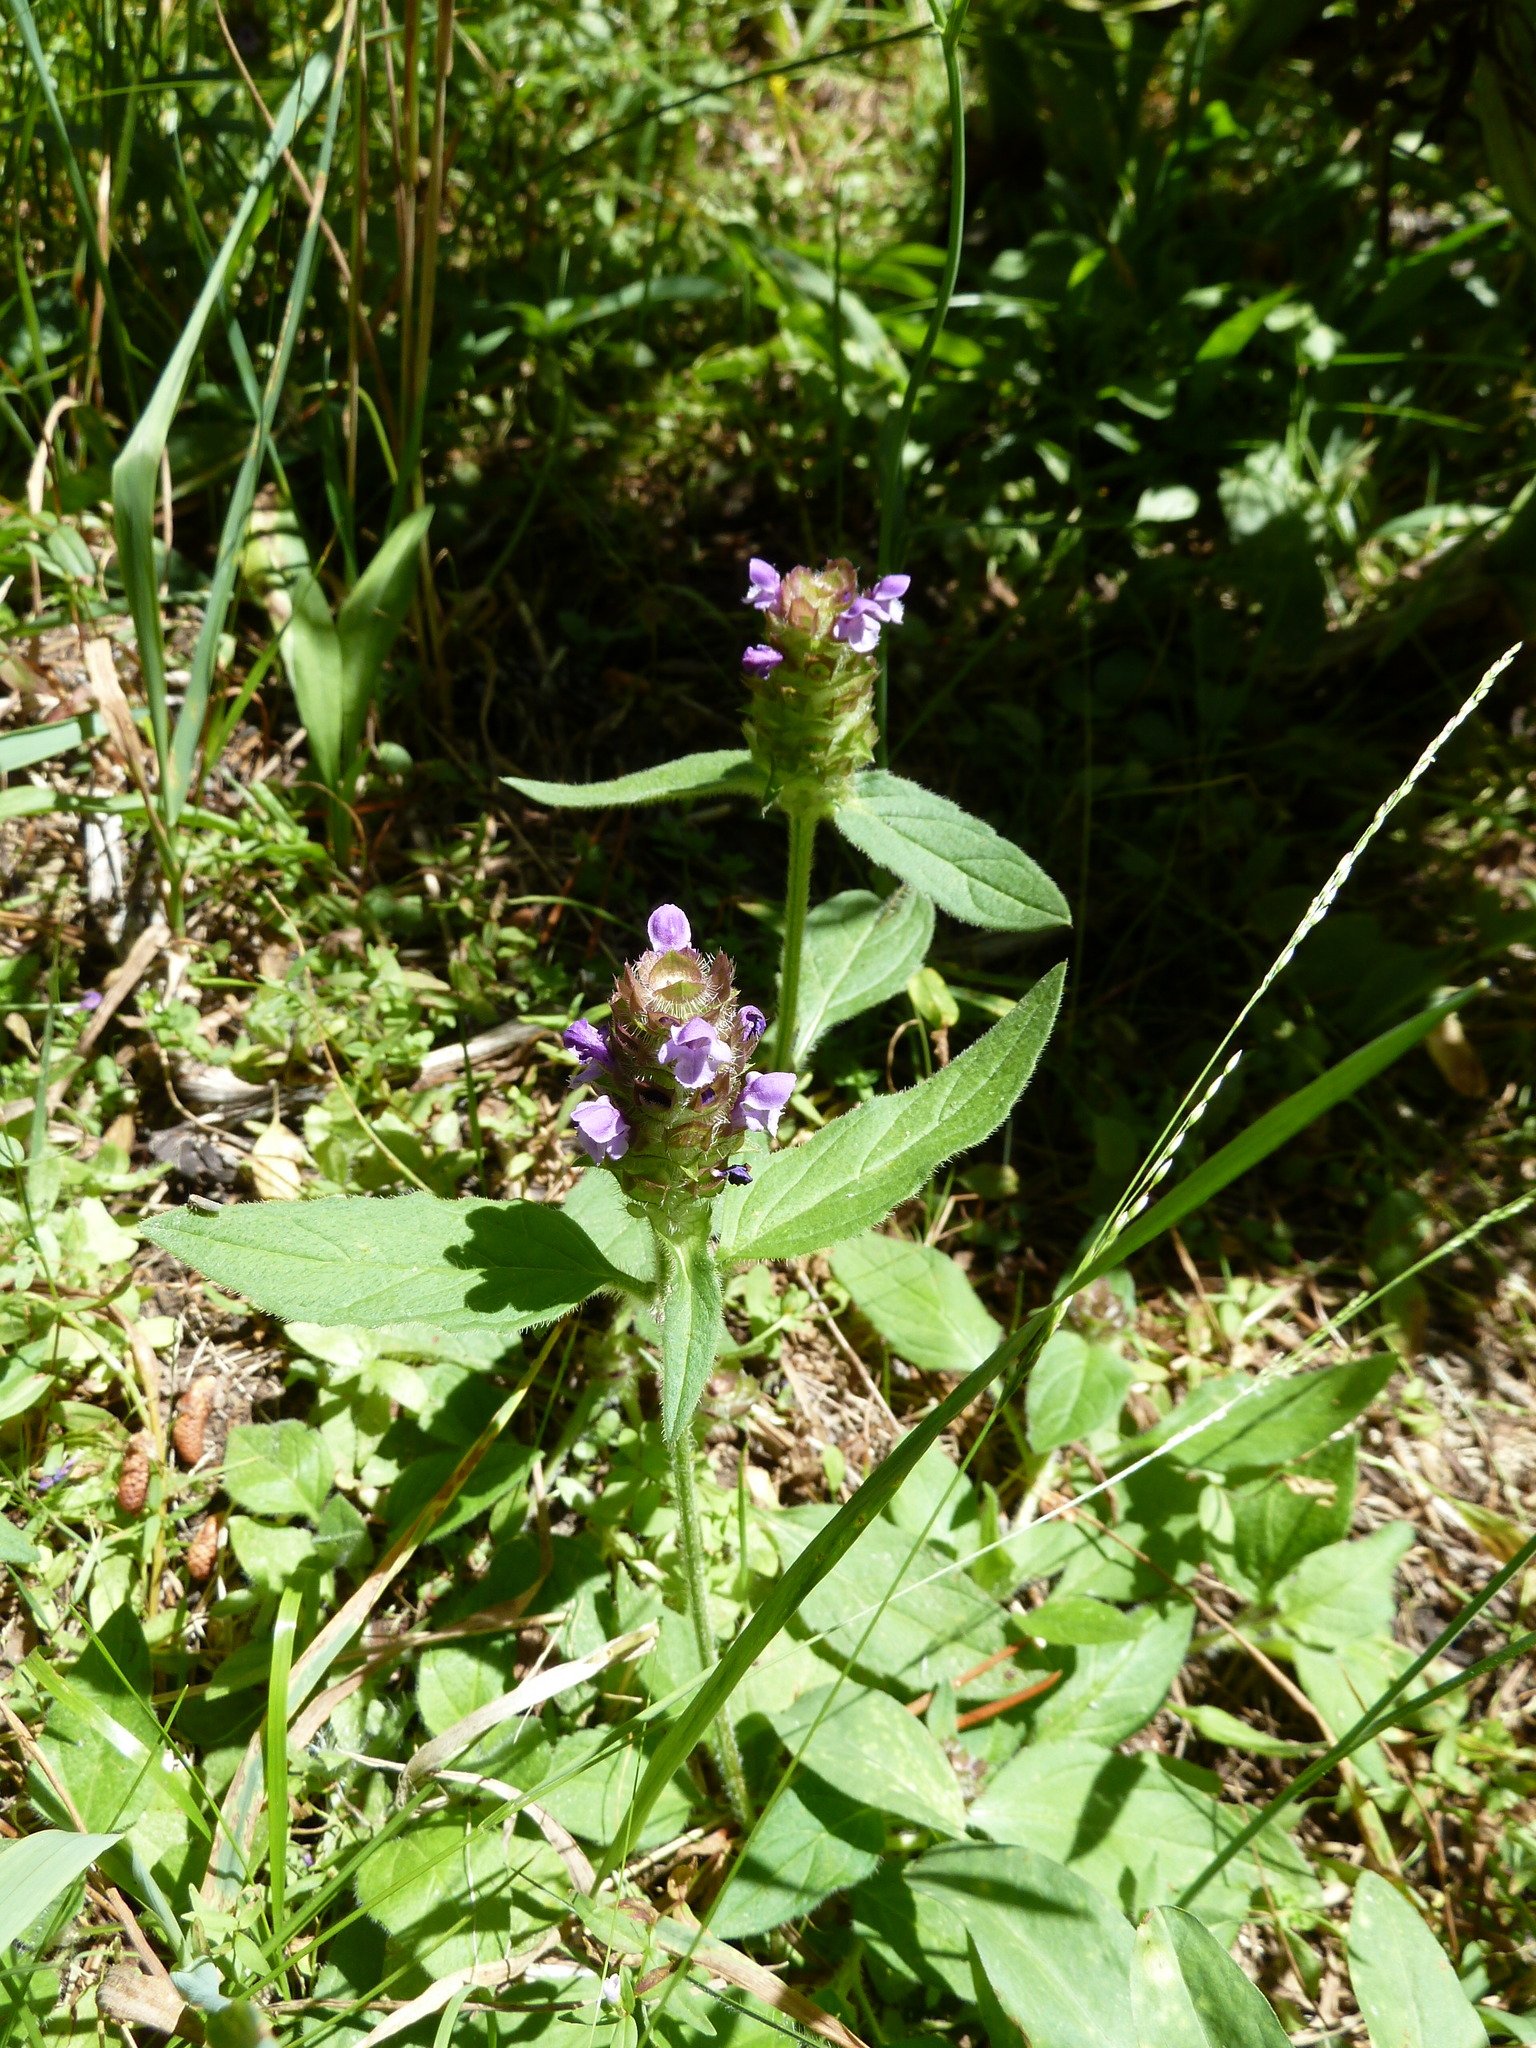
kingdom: Plantae
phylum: Tracheophyta
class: Magnoliopsida
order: Lamiales
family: Lamiaceae
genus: Prunella
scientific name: Prunella vulgaris
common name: Heal-all
